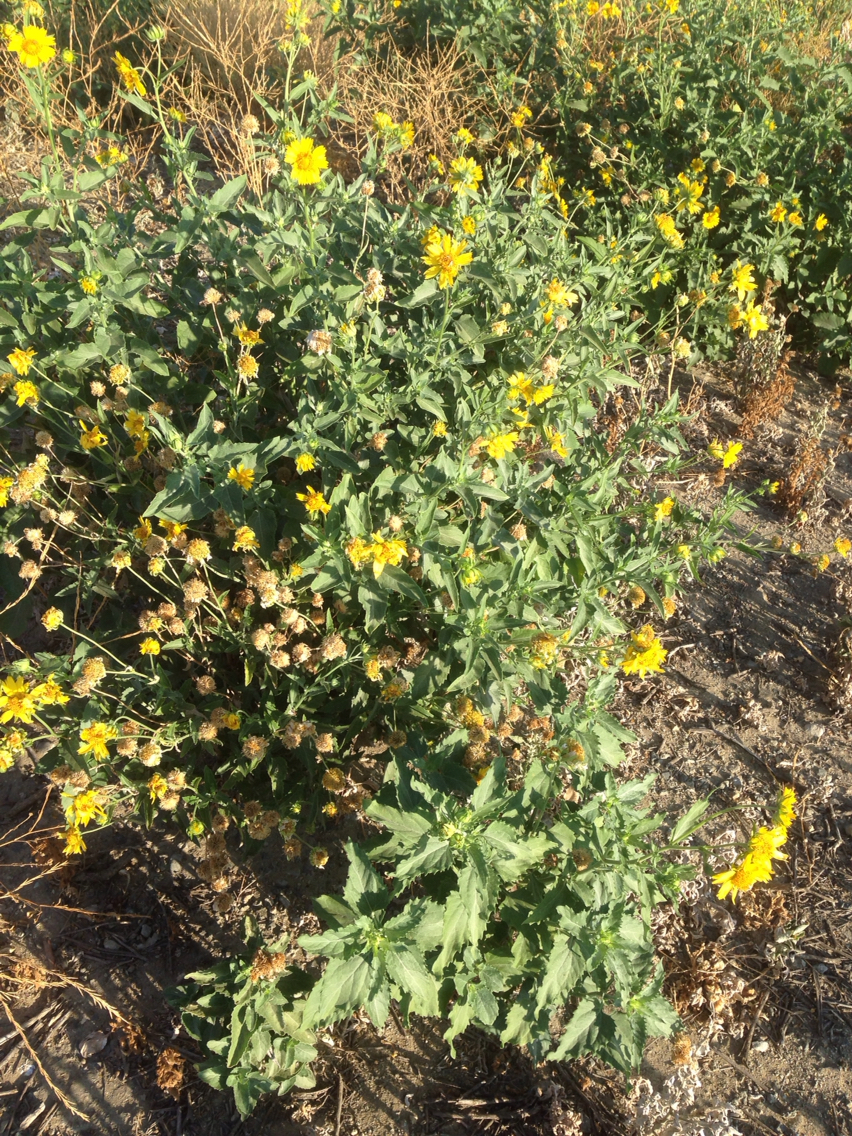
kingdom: Plantae
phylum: Tracheophyta
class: Magnoliopsida
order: Asterales
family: Asteraceae
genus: Verbesina
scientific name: Verbesina encelioides
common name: Golden crownbeard
